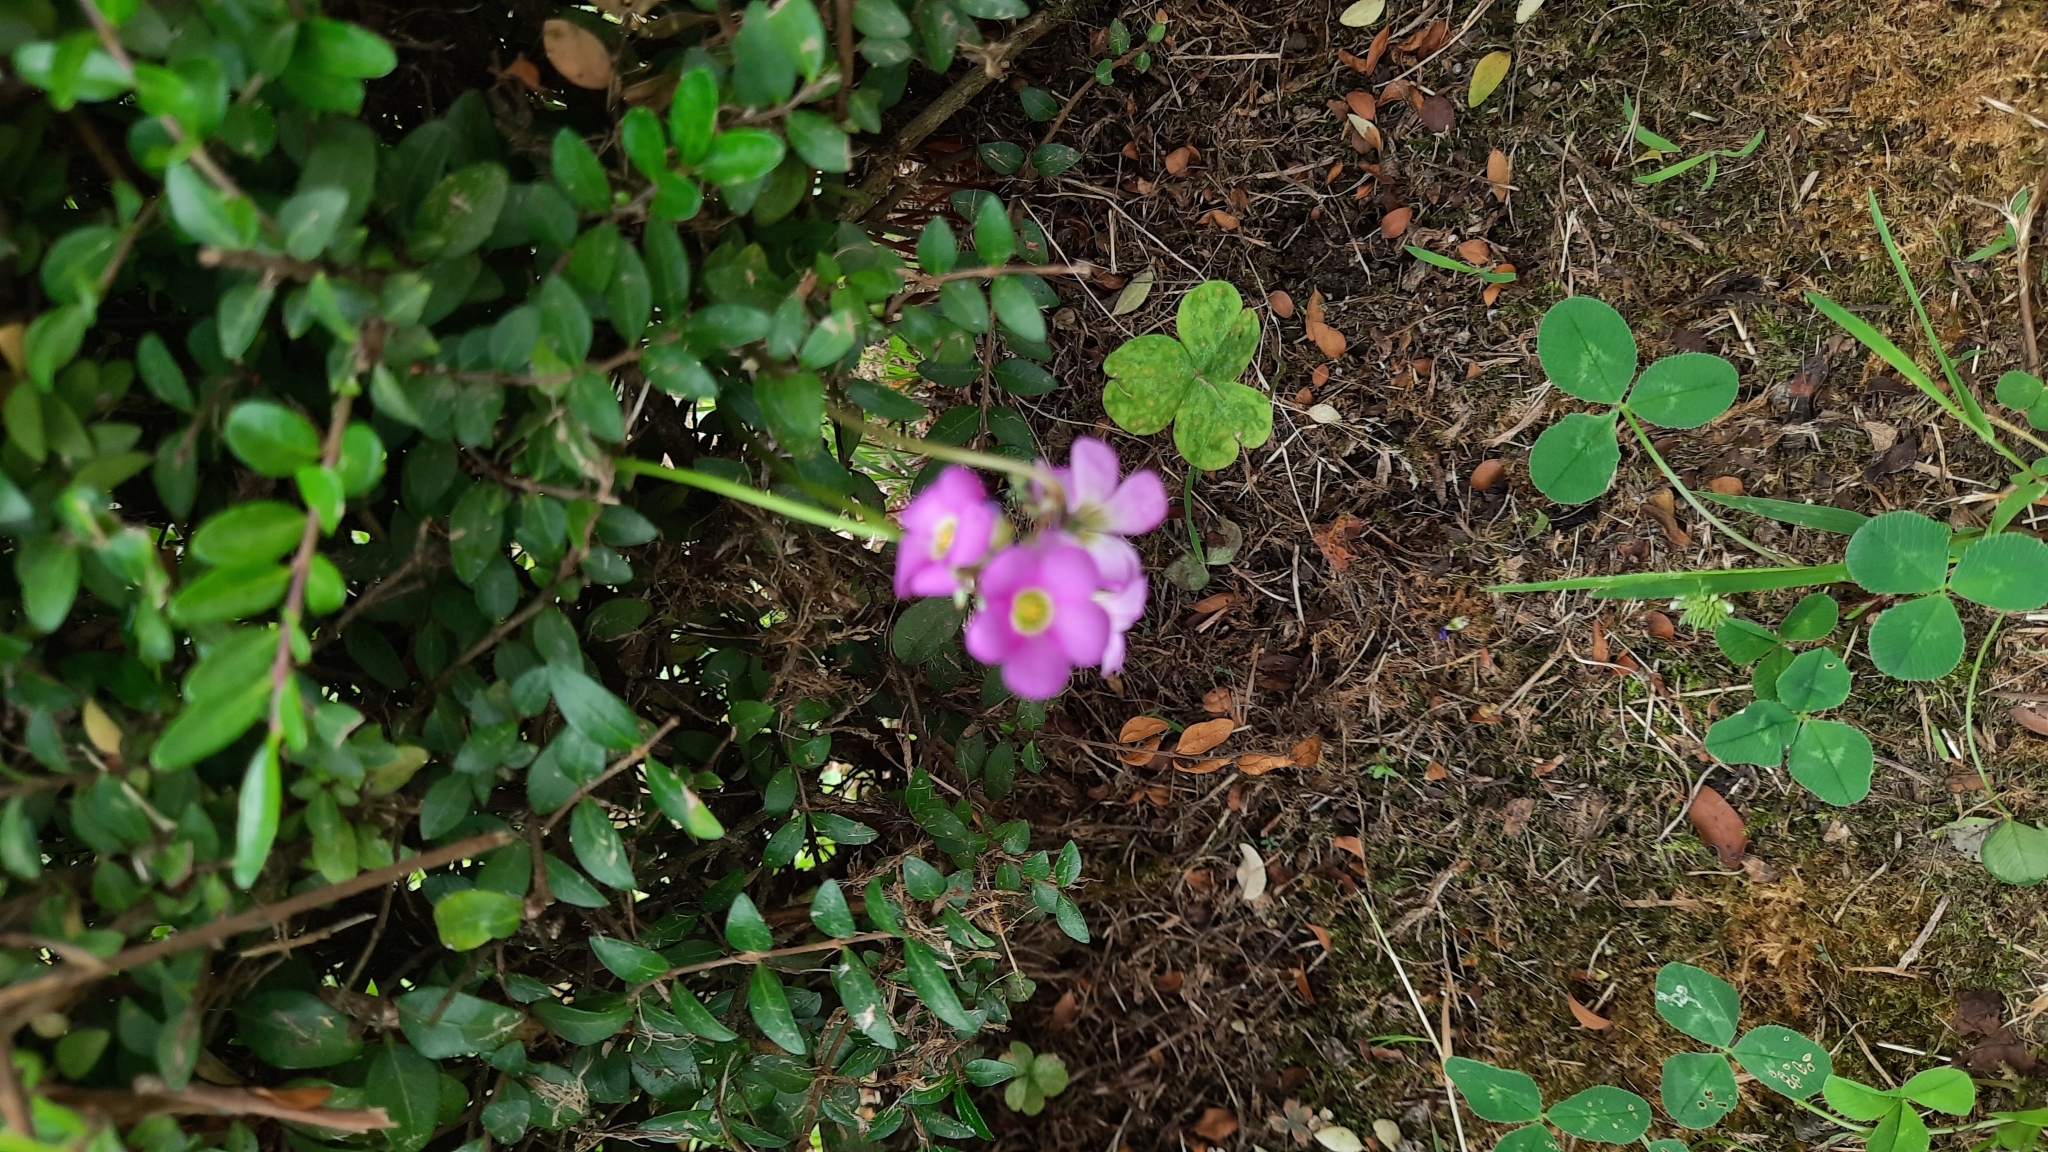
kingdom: Plantae
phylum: Tracheophyta
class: Magnoliopsida
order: Oxalidales
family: Oxalidaceae
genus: Oxalis
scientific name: Oxalis latifolia
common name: Garden pink-sorrel
